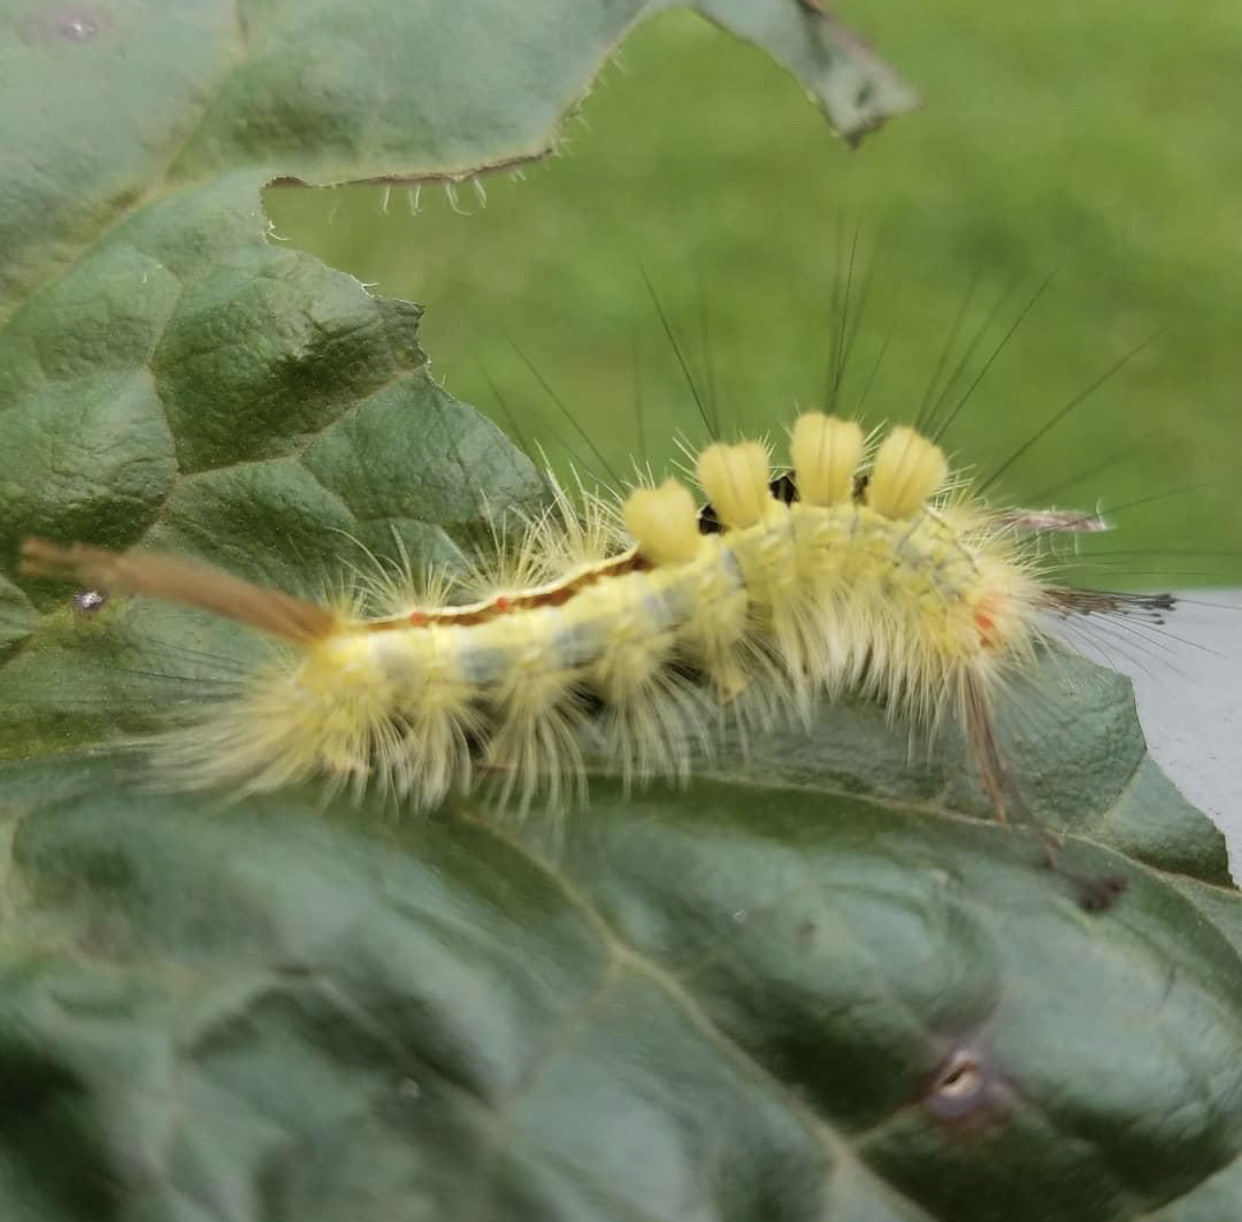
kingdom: Animalia
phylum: Arthropoda
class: Insecta
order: Lepidoptera
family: Erebidae
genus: Orgyia
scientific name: Orgyia leucostigma
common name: White-marked tussock moth
